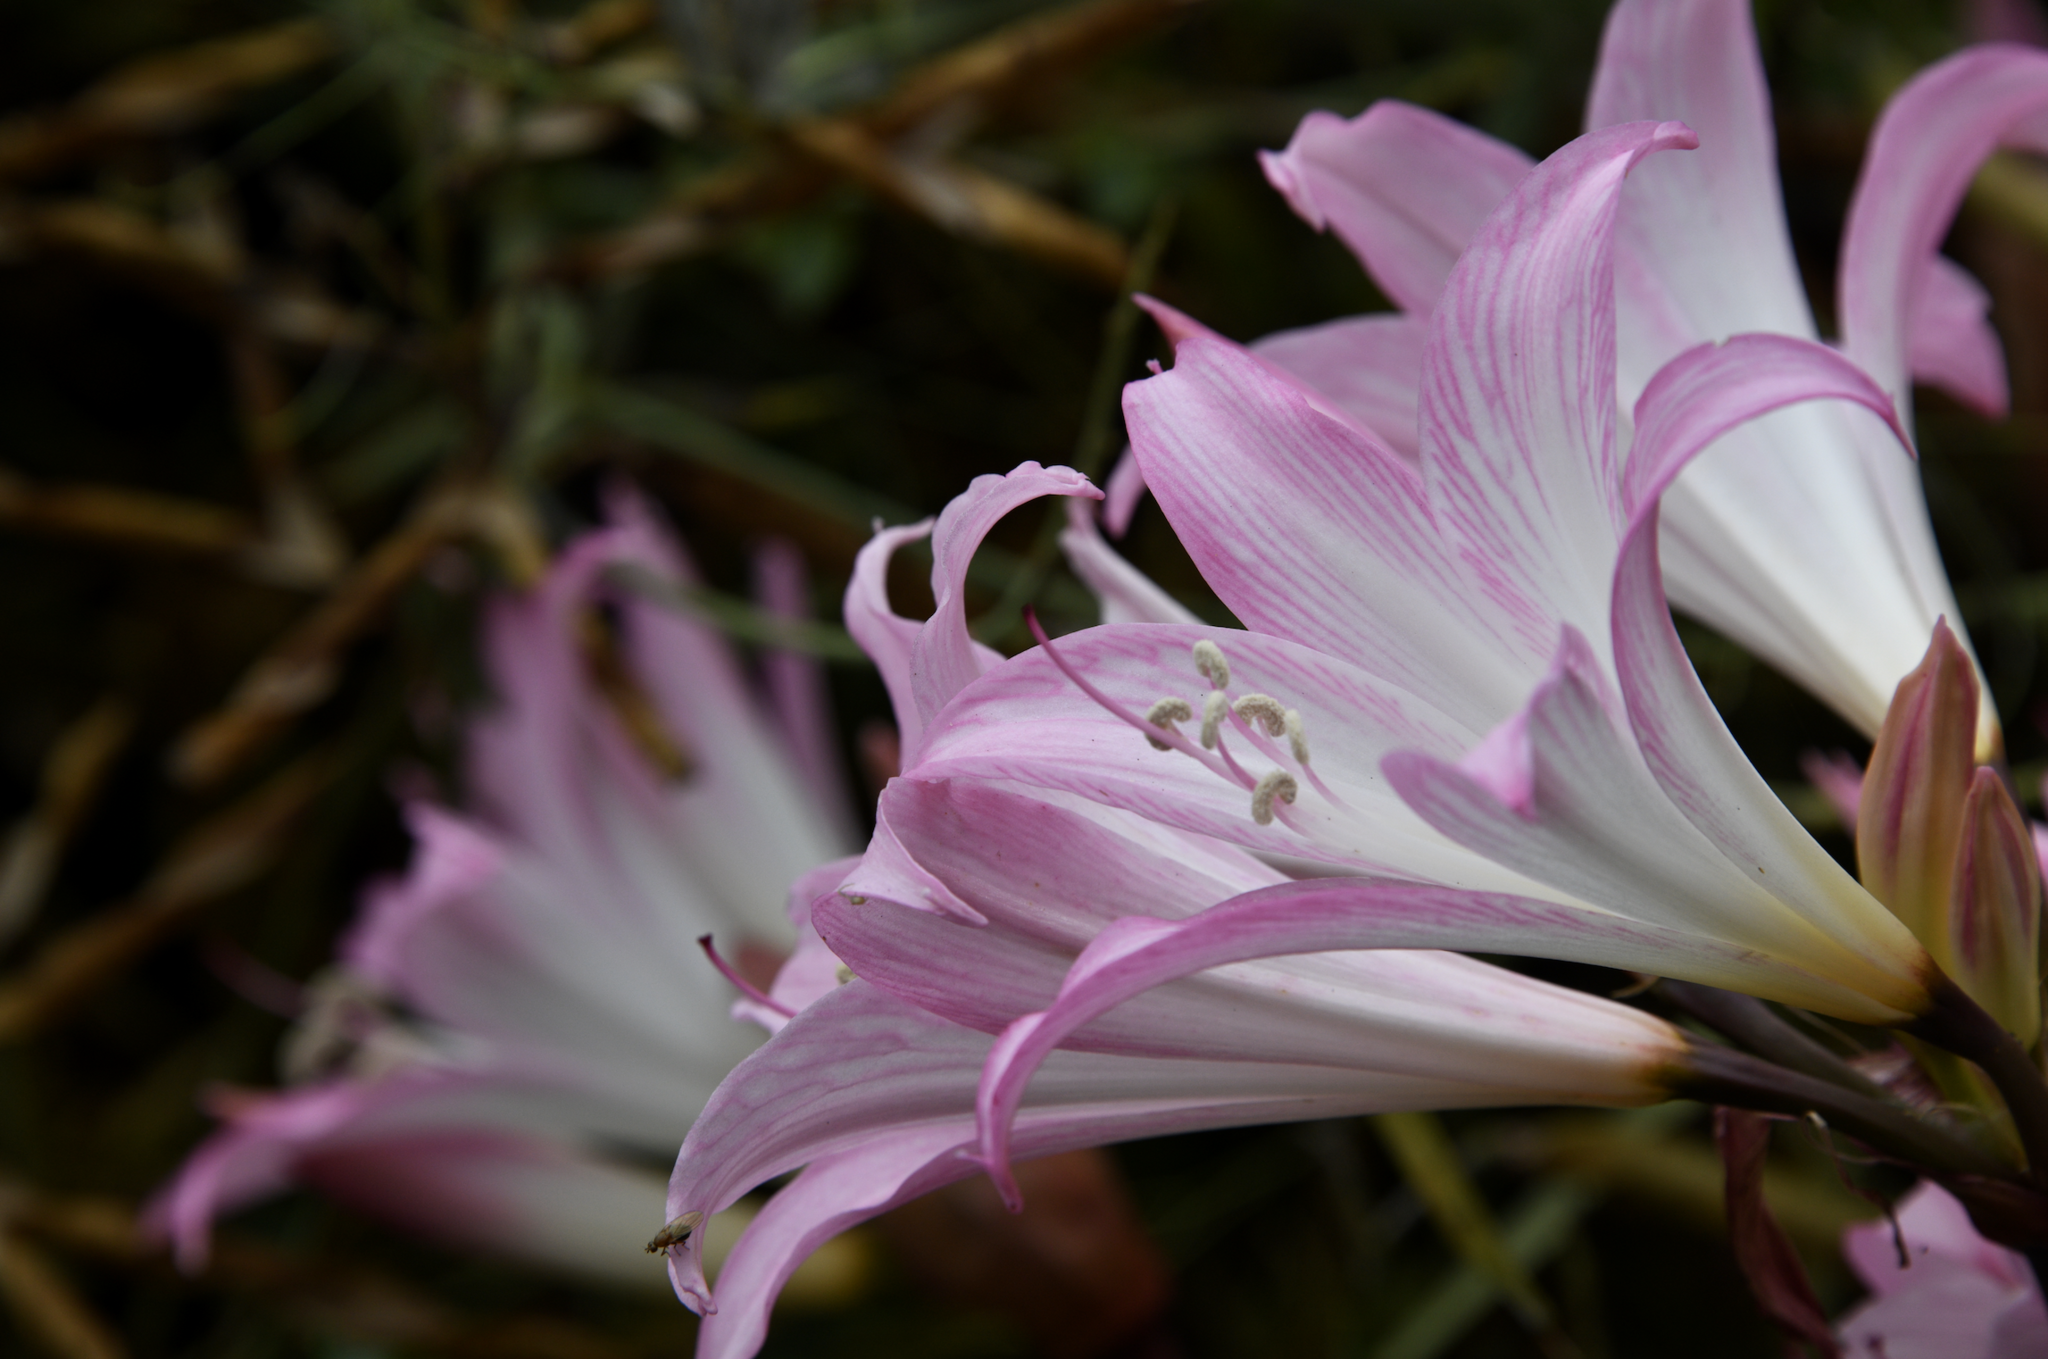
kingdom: Plantae
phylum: Tracheophyta
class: Liliopsida
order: Asparagales
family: Amaryllidaceae
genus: Amaryllis
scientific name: Amaryllis belladonna
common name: Jersey lily
